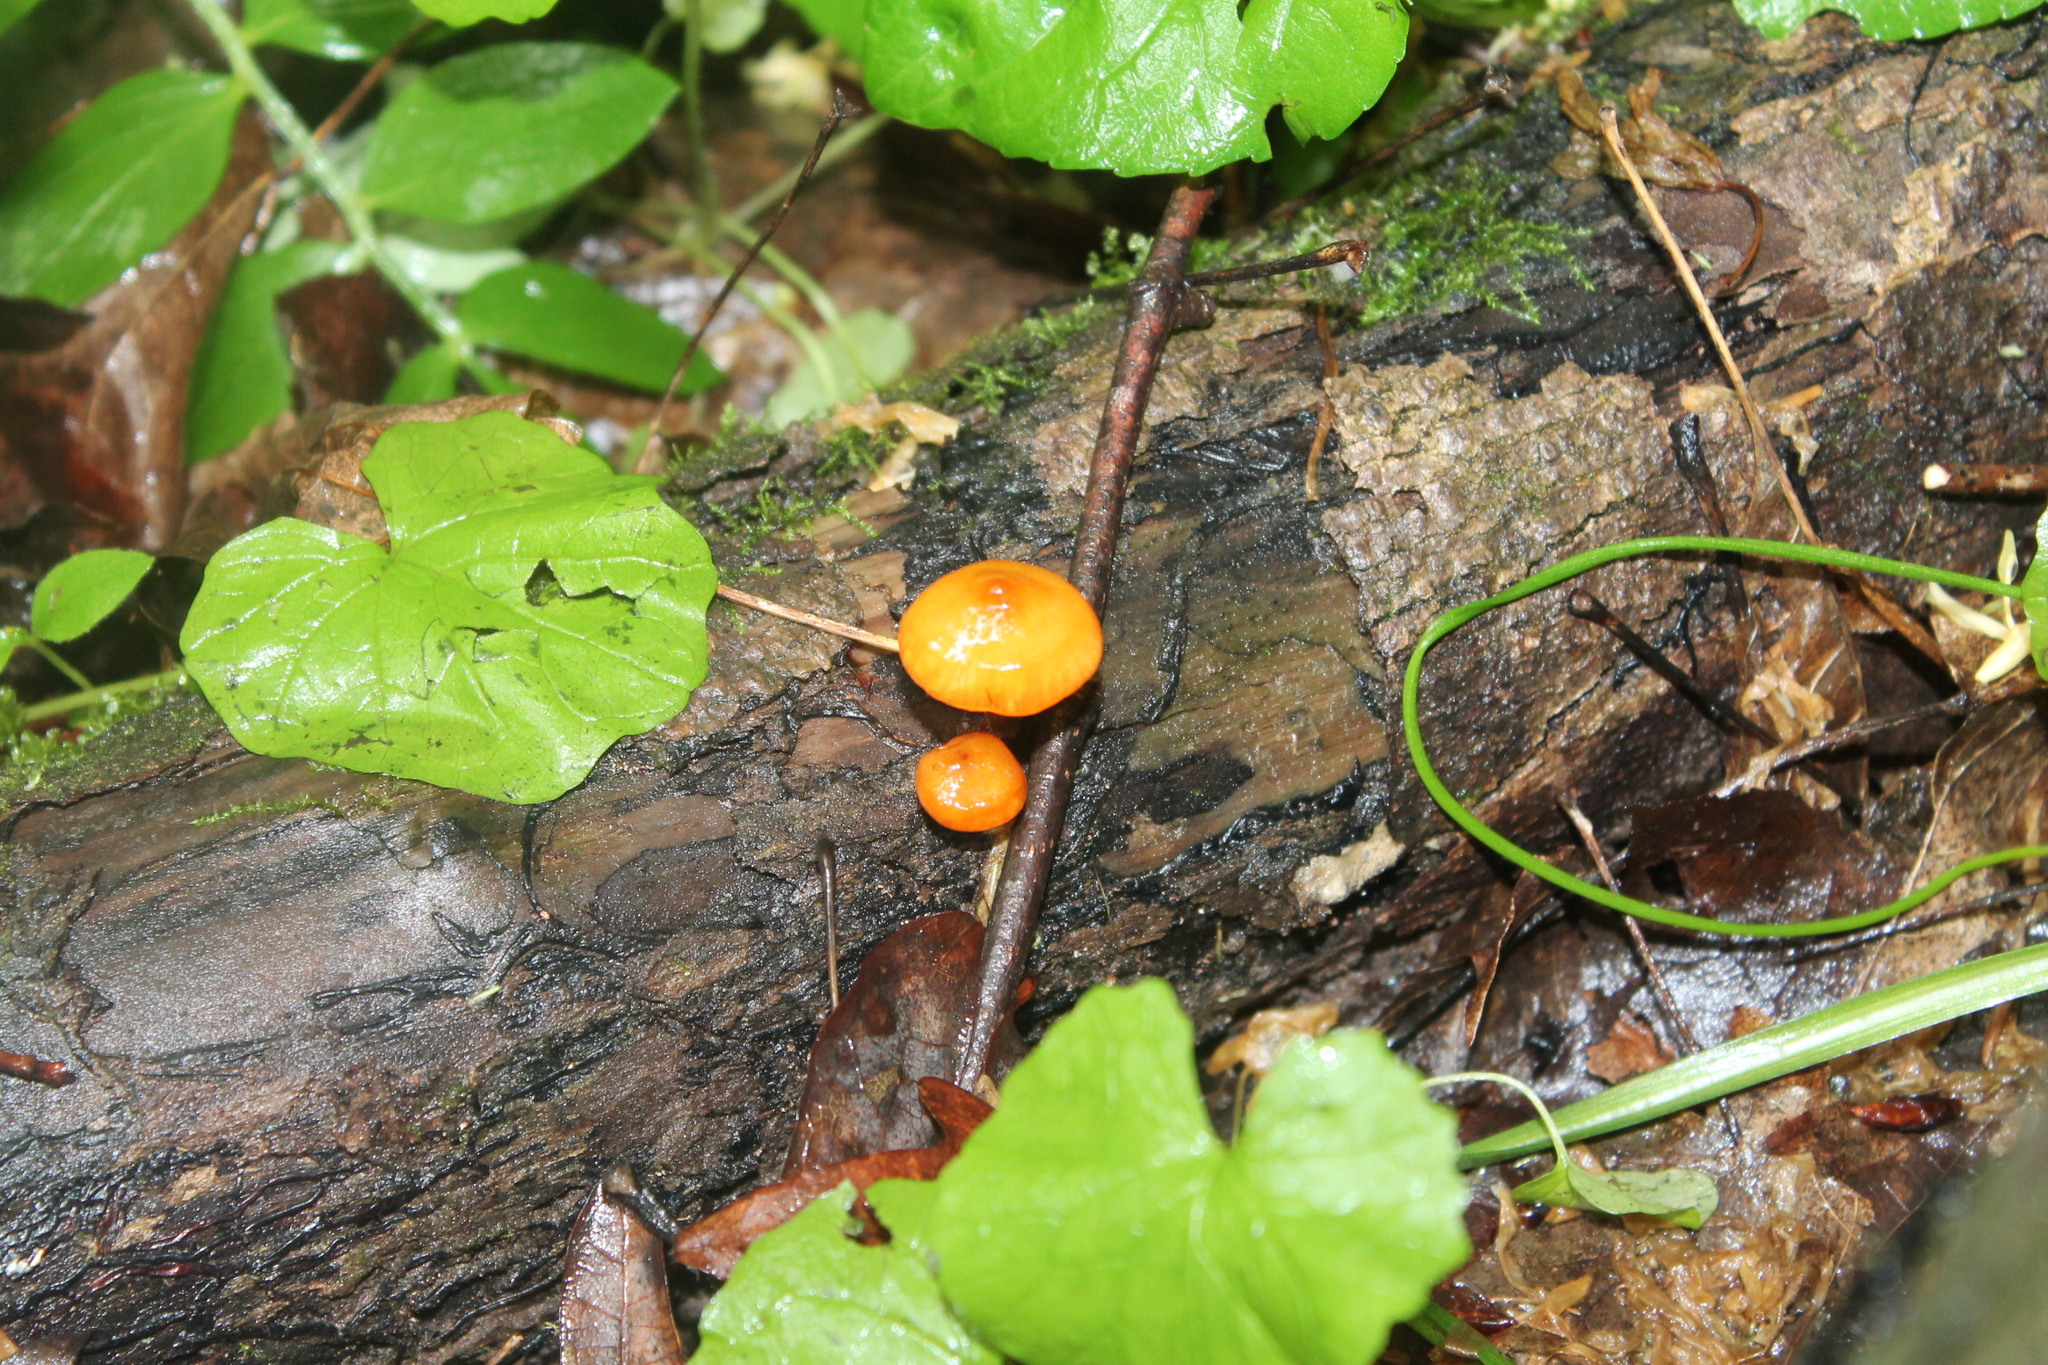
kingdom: Fungi
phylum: Basidiomycota
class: Agaricomycetes
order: Agaricales
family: Mycenaceae
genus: Mycena
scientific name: Mycena leaiana
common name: Orange mycena
